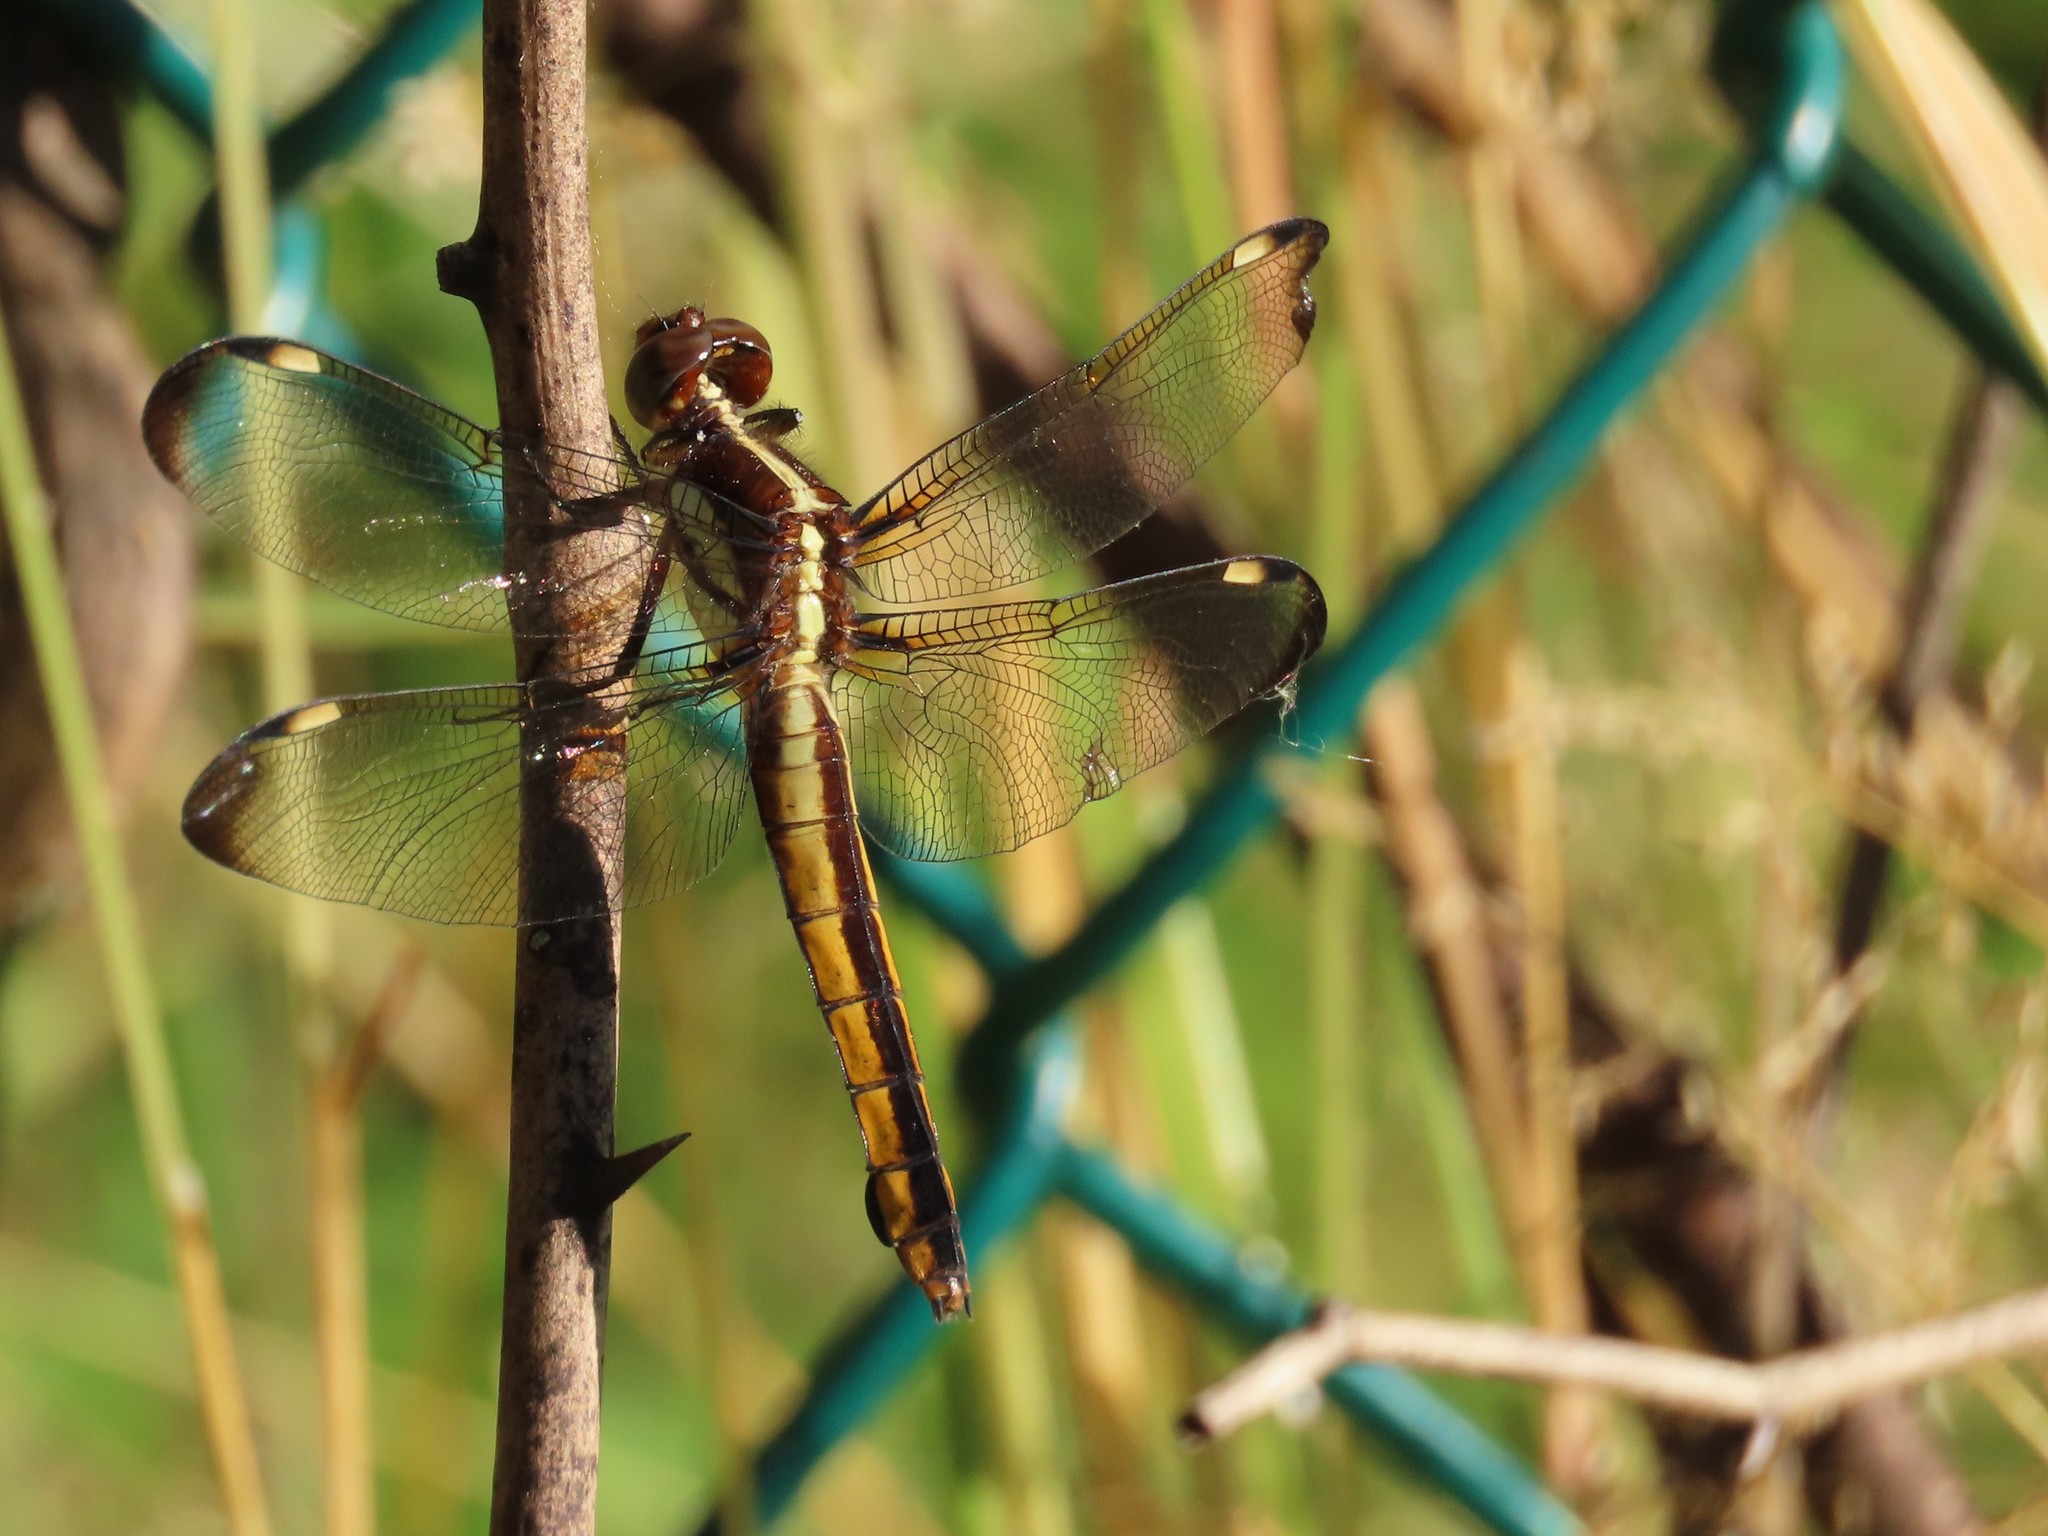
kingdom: Animalia
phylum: Arthropoda
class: Insecta
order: Odonata
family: Libellulidae
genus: Libellula
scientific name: Libellula cyanea
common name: Spangled skimmer
